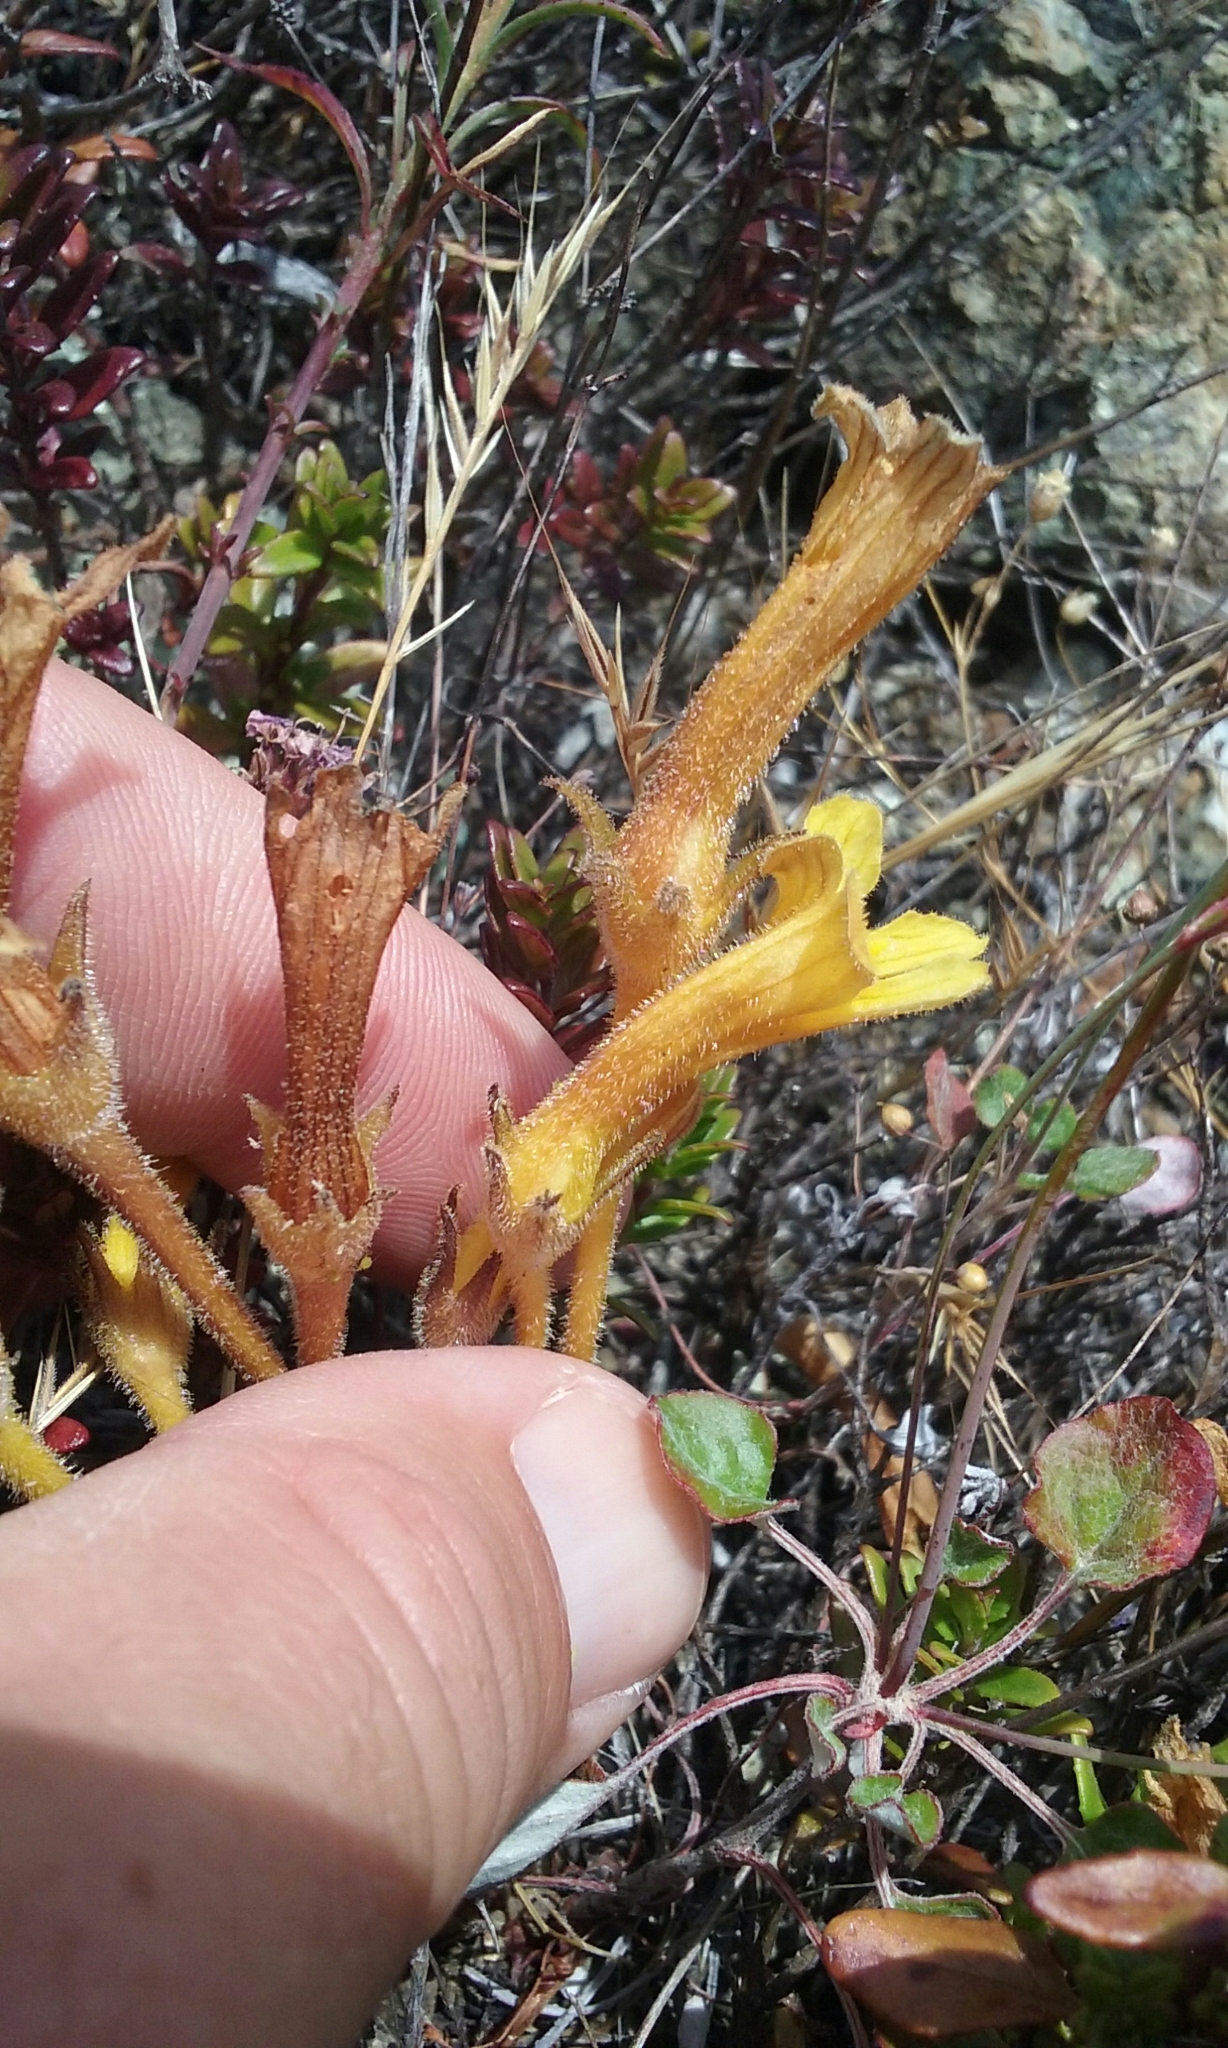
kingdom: Plantae
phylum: Tracheophyta
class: Magnoliopsida
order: Lamiales
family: Orobanchaceae
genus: Aphyllon
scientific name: Aphyllon franciscanum
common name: San francisco broomrape
